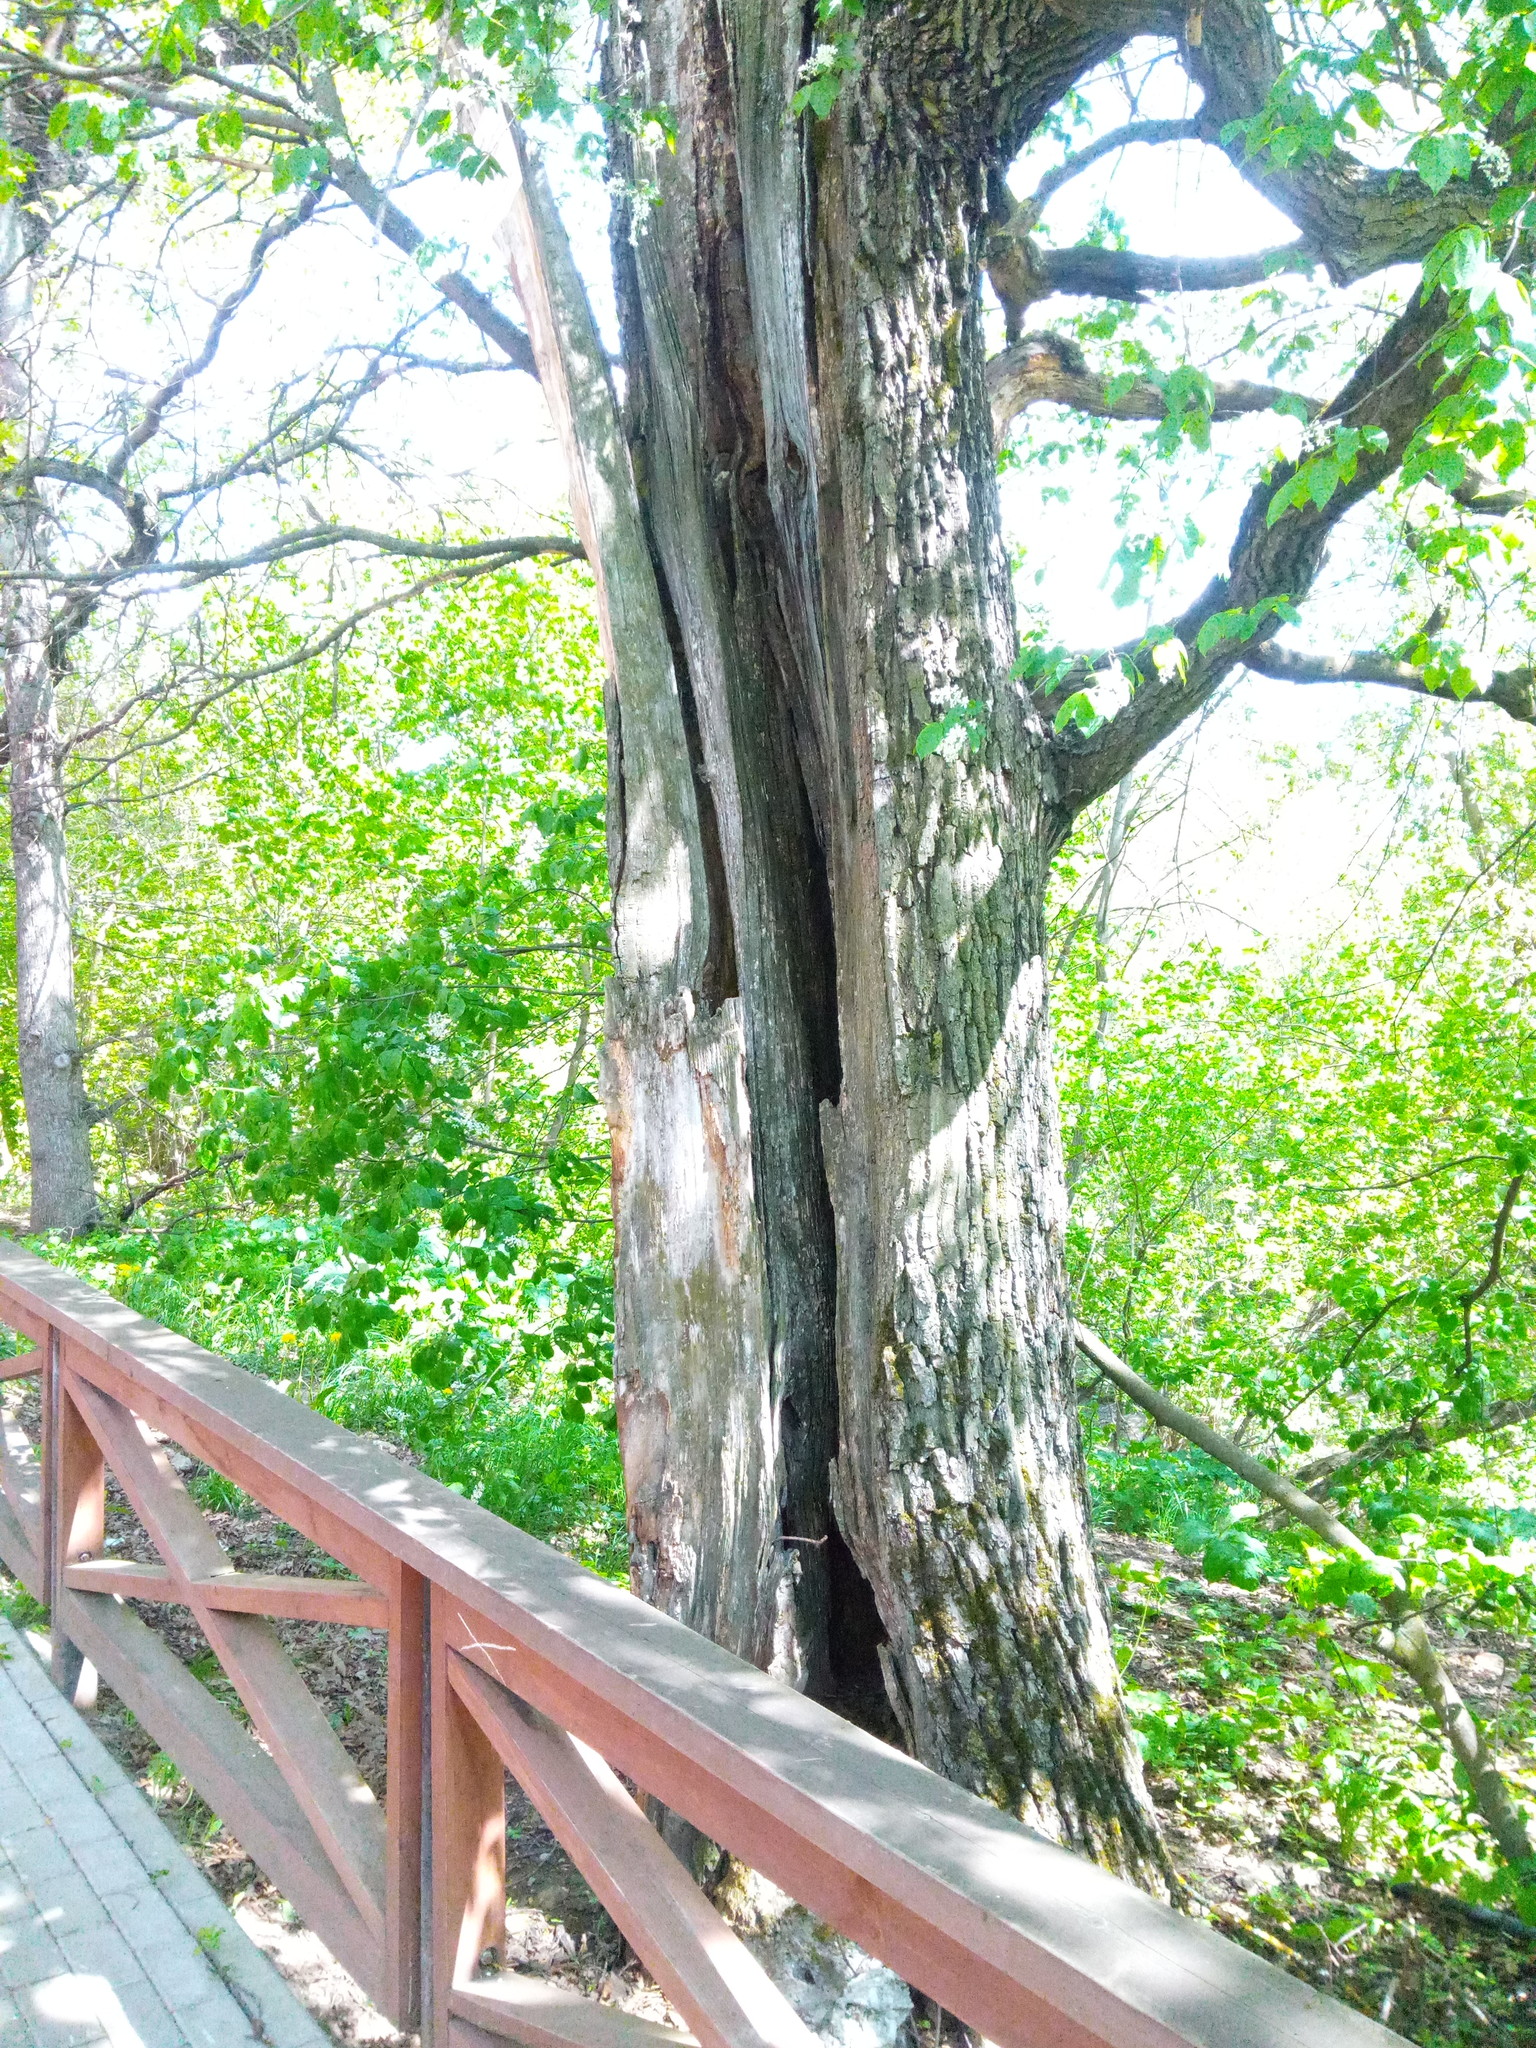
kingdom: Plantae
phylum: Tracheophyta
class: Magnoliopsida
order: Fagales
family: Fagaceae
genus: Quercus
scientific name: Quercus robur
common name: Pedunculate oak
